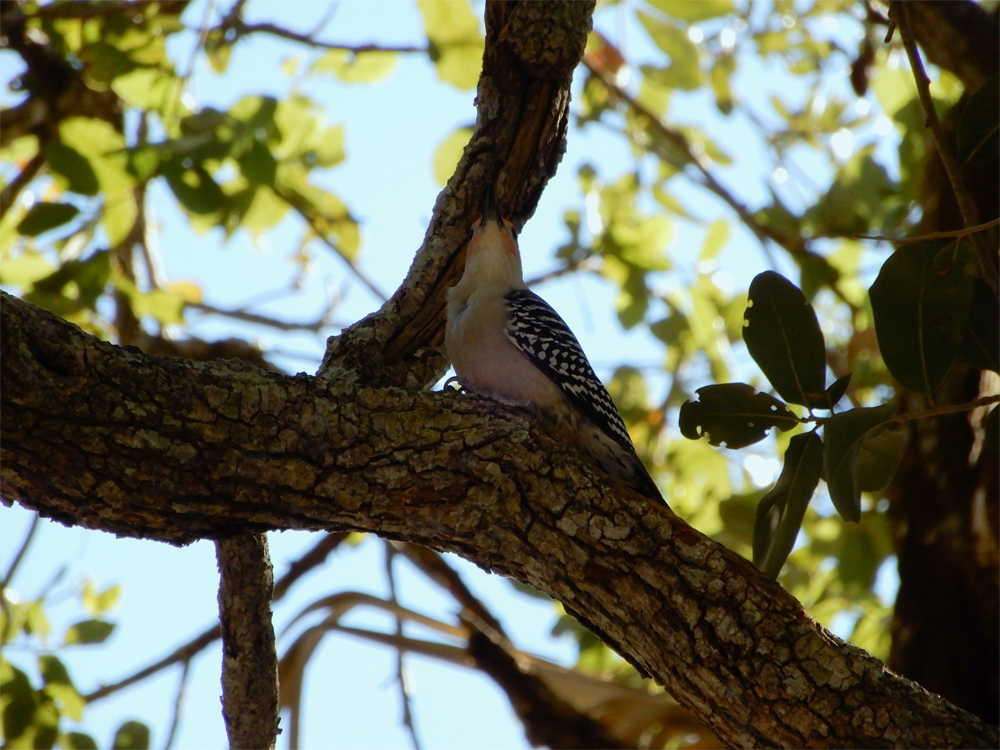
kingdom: Animalia
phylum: Chordata
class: Aves
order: Piciformes
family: Picidae
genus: Melanerpes
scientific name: Melanerpes carolinus
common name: Red-bellied woodpecker
